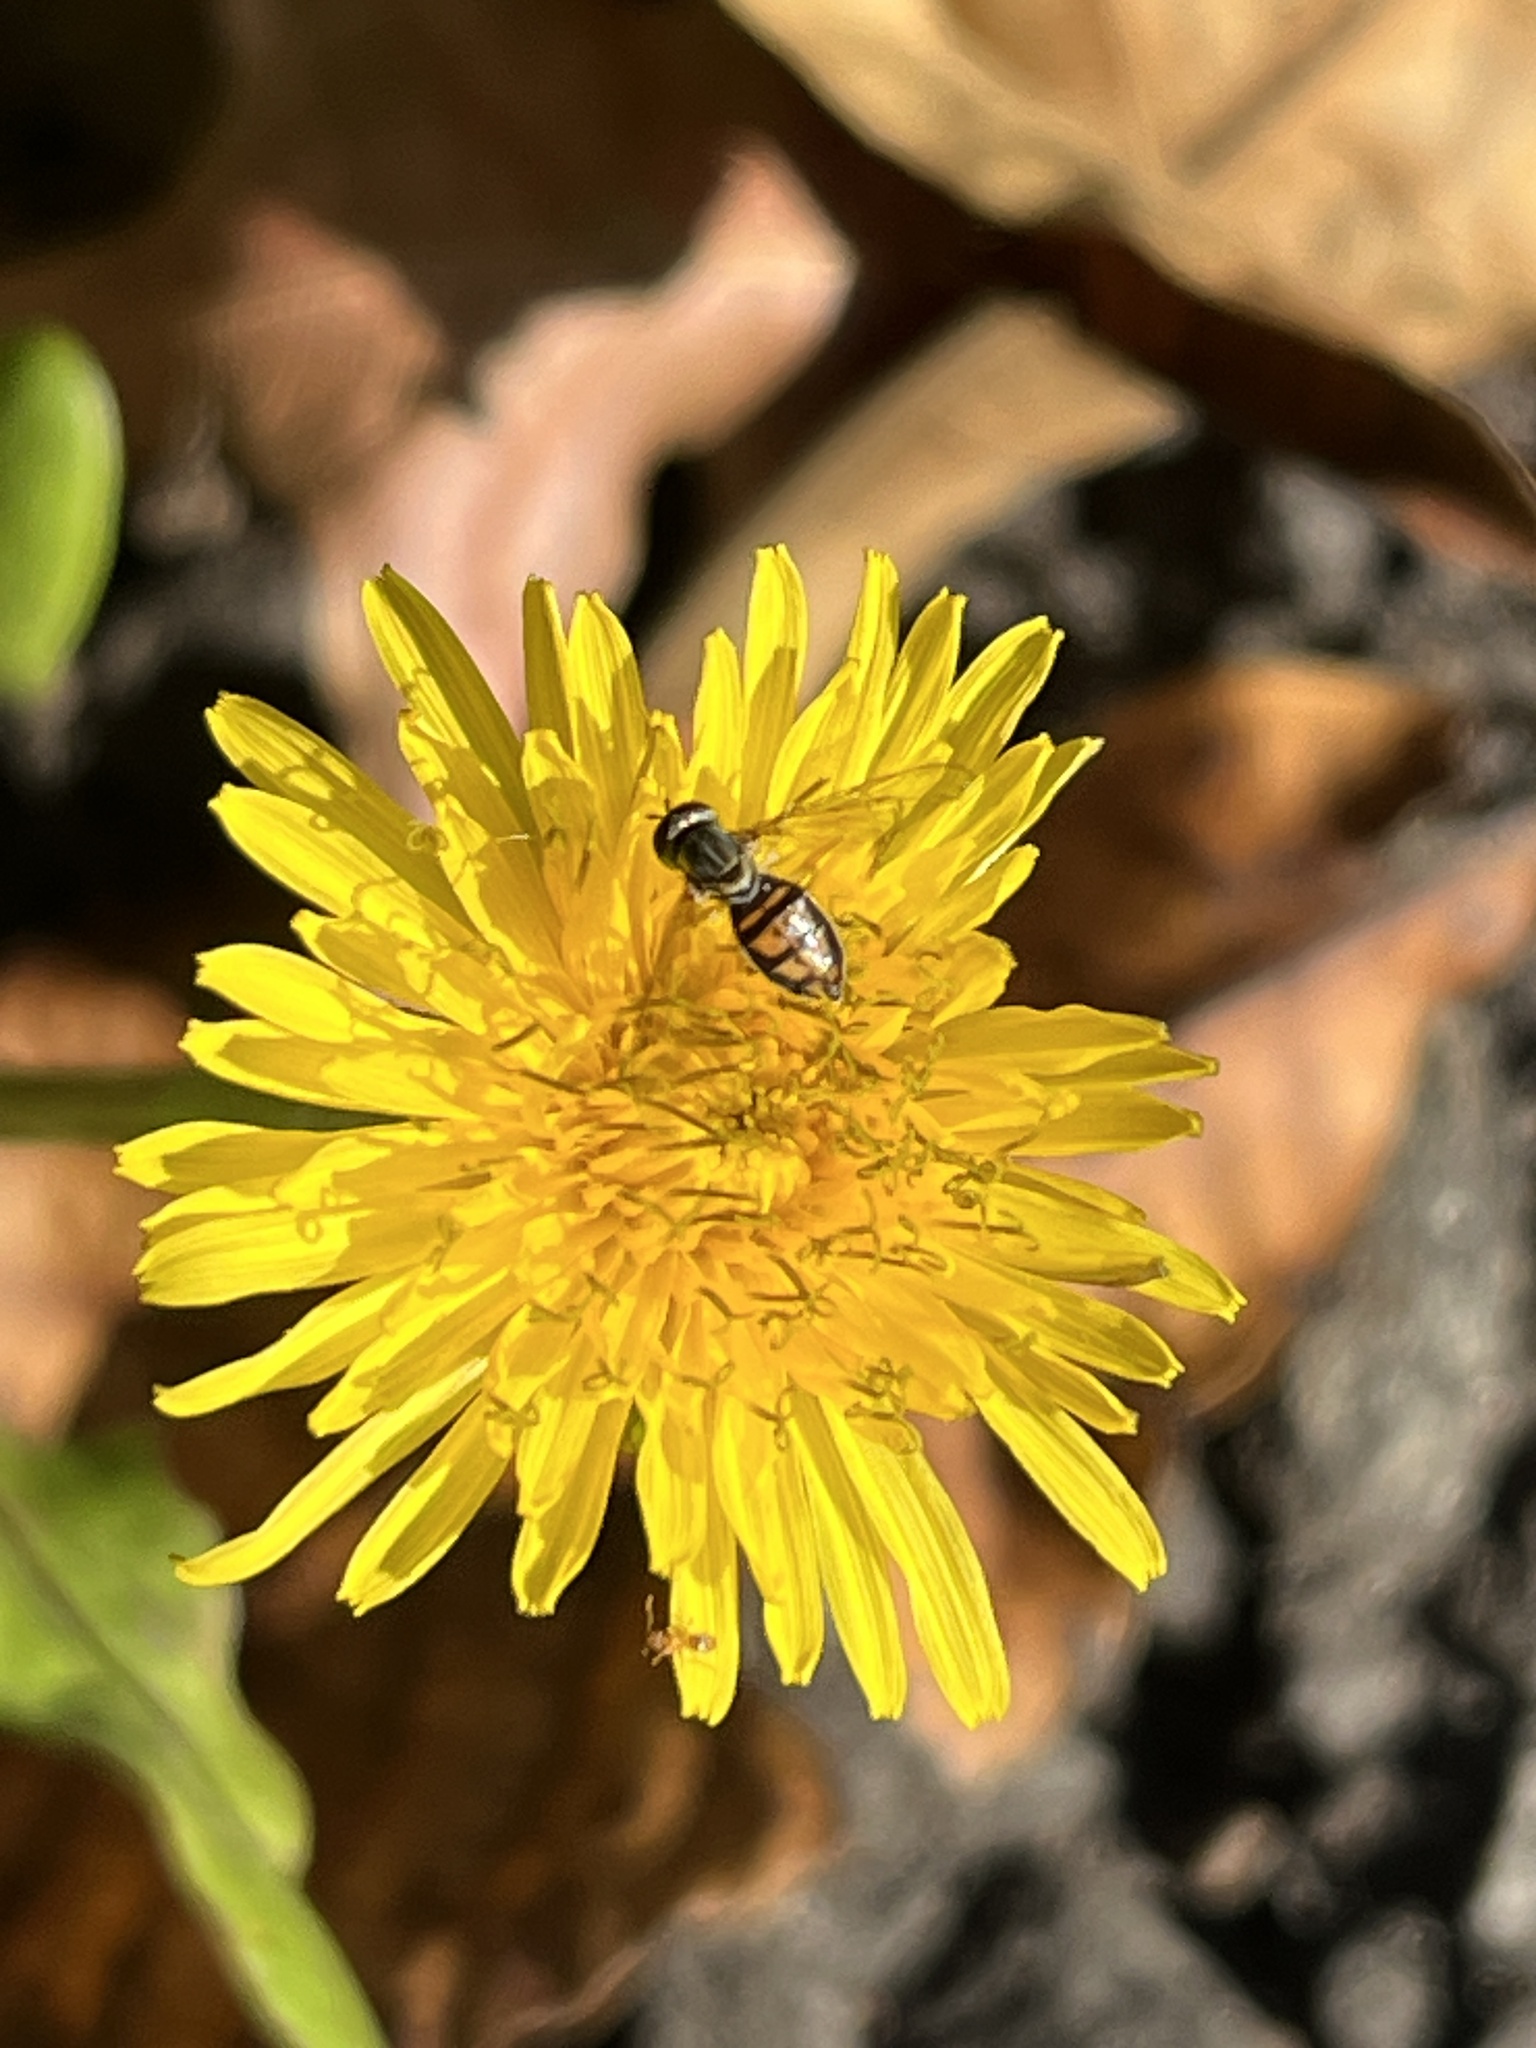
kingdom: Animalia
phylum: Arthropoda
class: Insecta
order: Diptera
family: Syrphidae
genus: Toxomerus
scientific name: Toxomerus marginatus
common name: Syrphid fly
